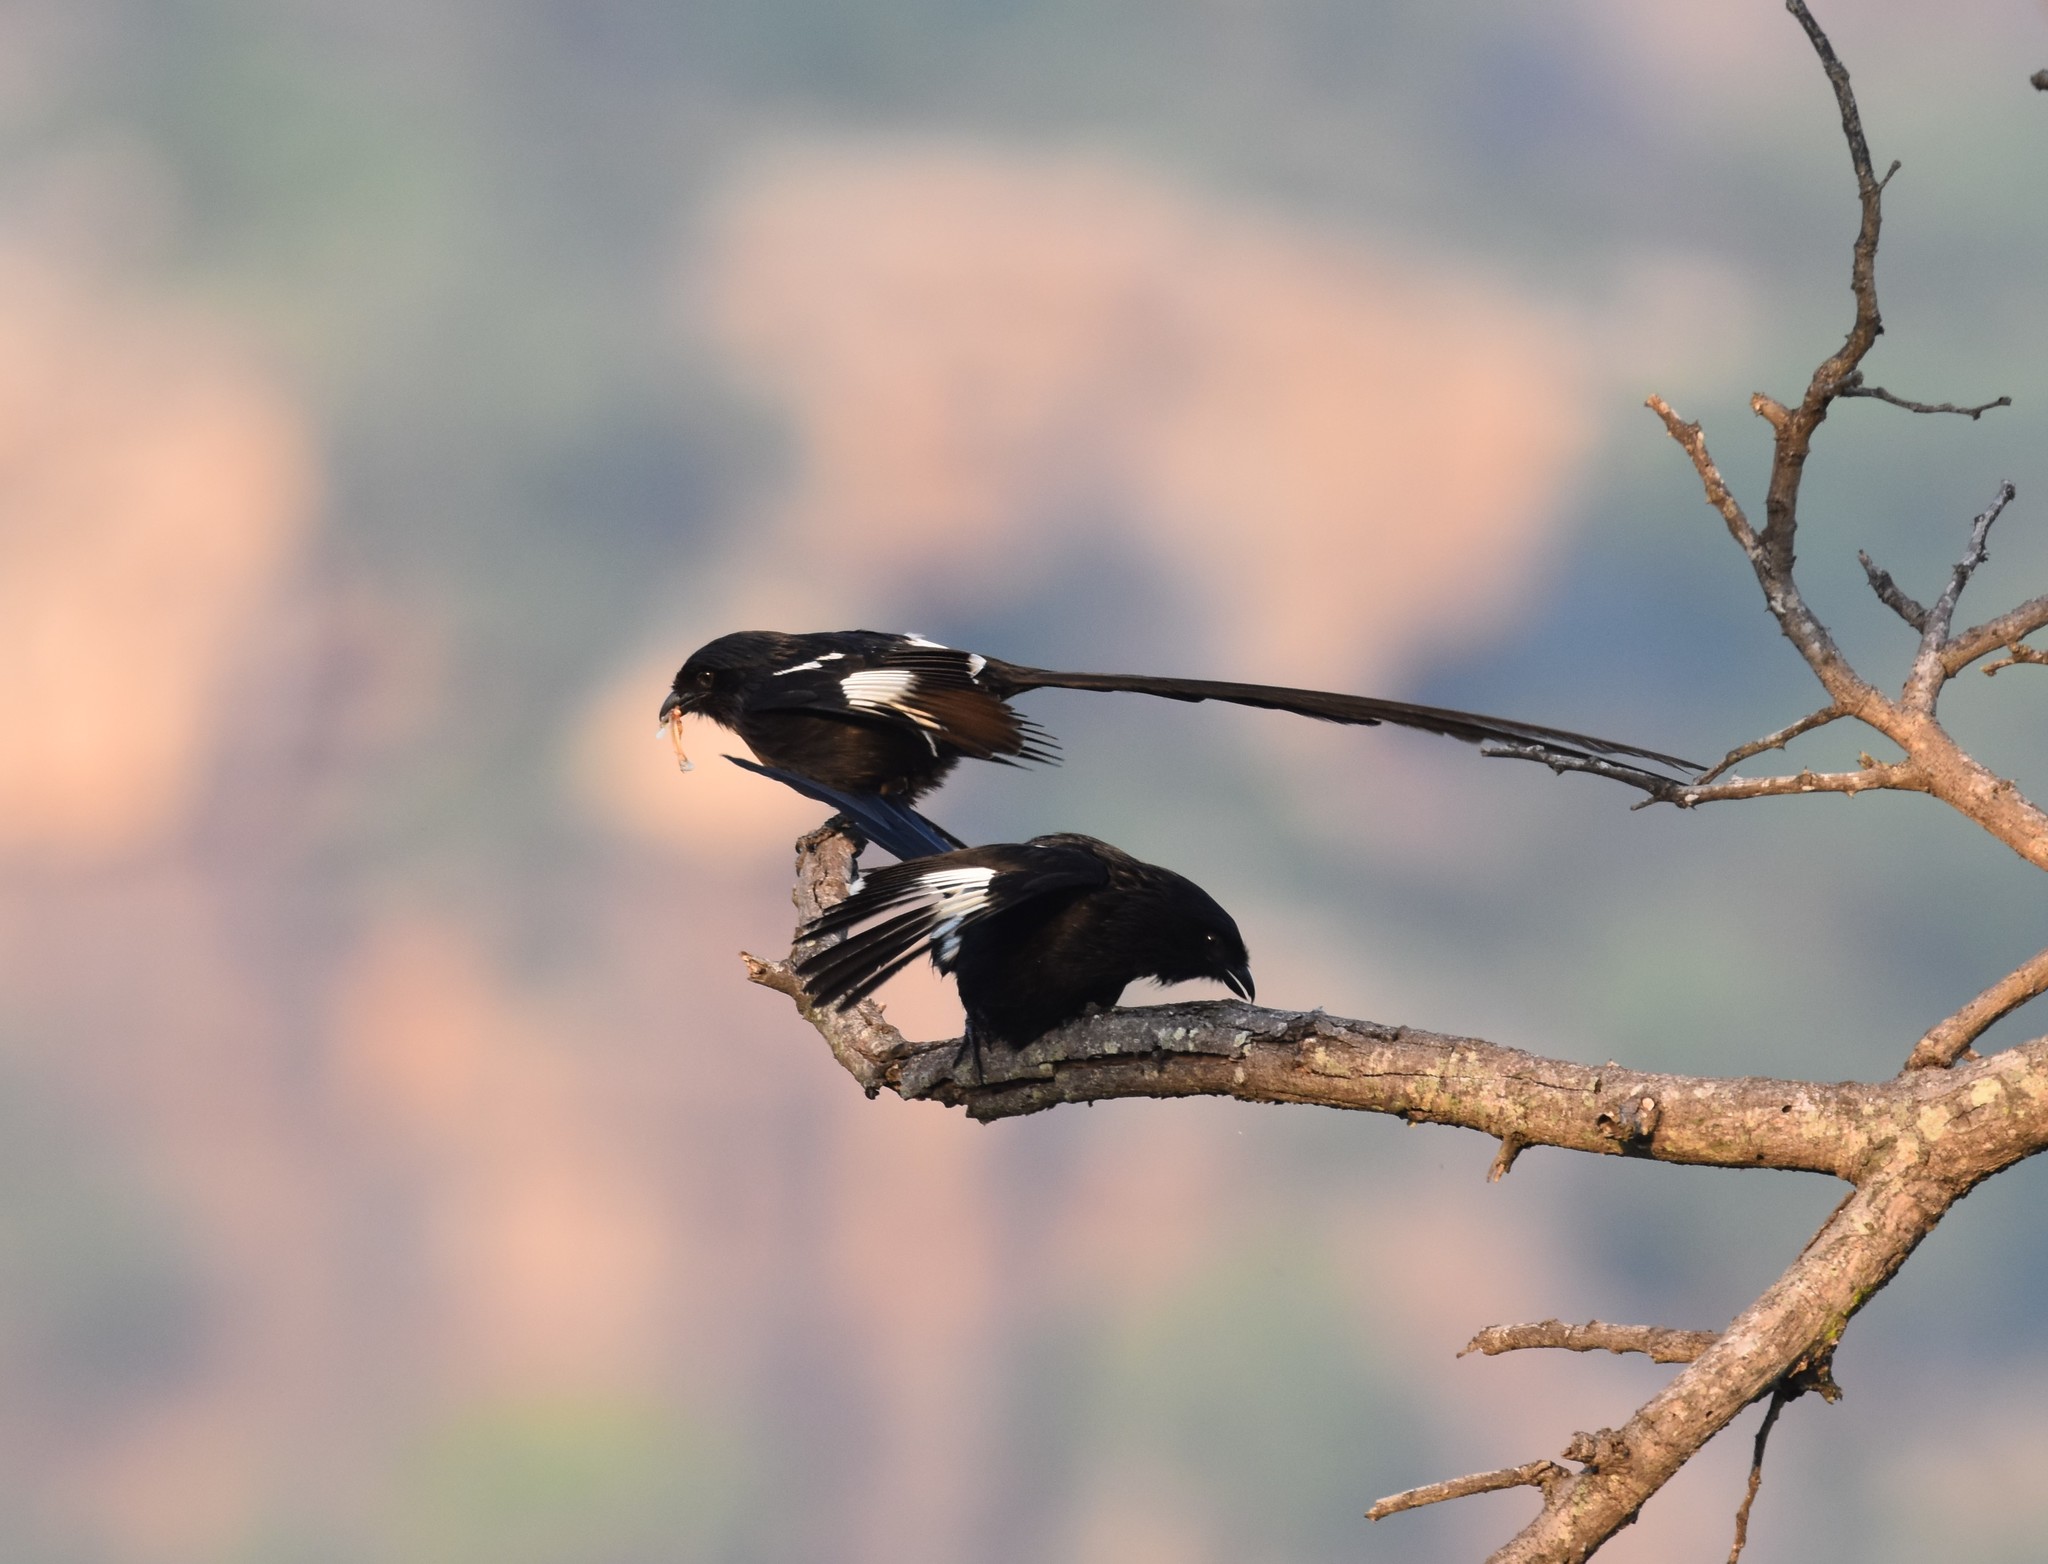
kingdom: Animalia
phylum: Chordata
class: Aves
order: Passeriformes
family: Laniidae
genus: Urolestes
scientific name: Urolestes melanoleucus
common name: Magpie shrike
